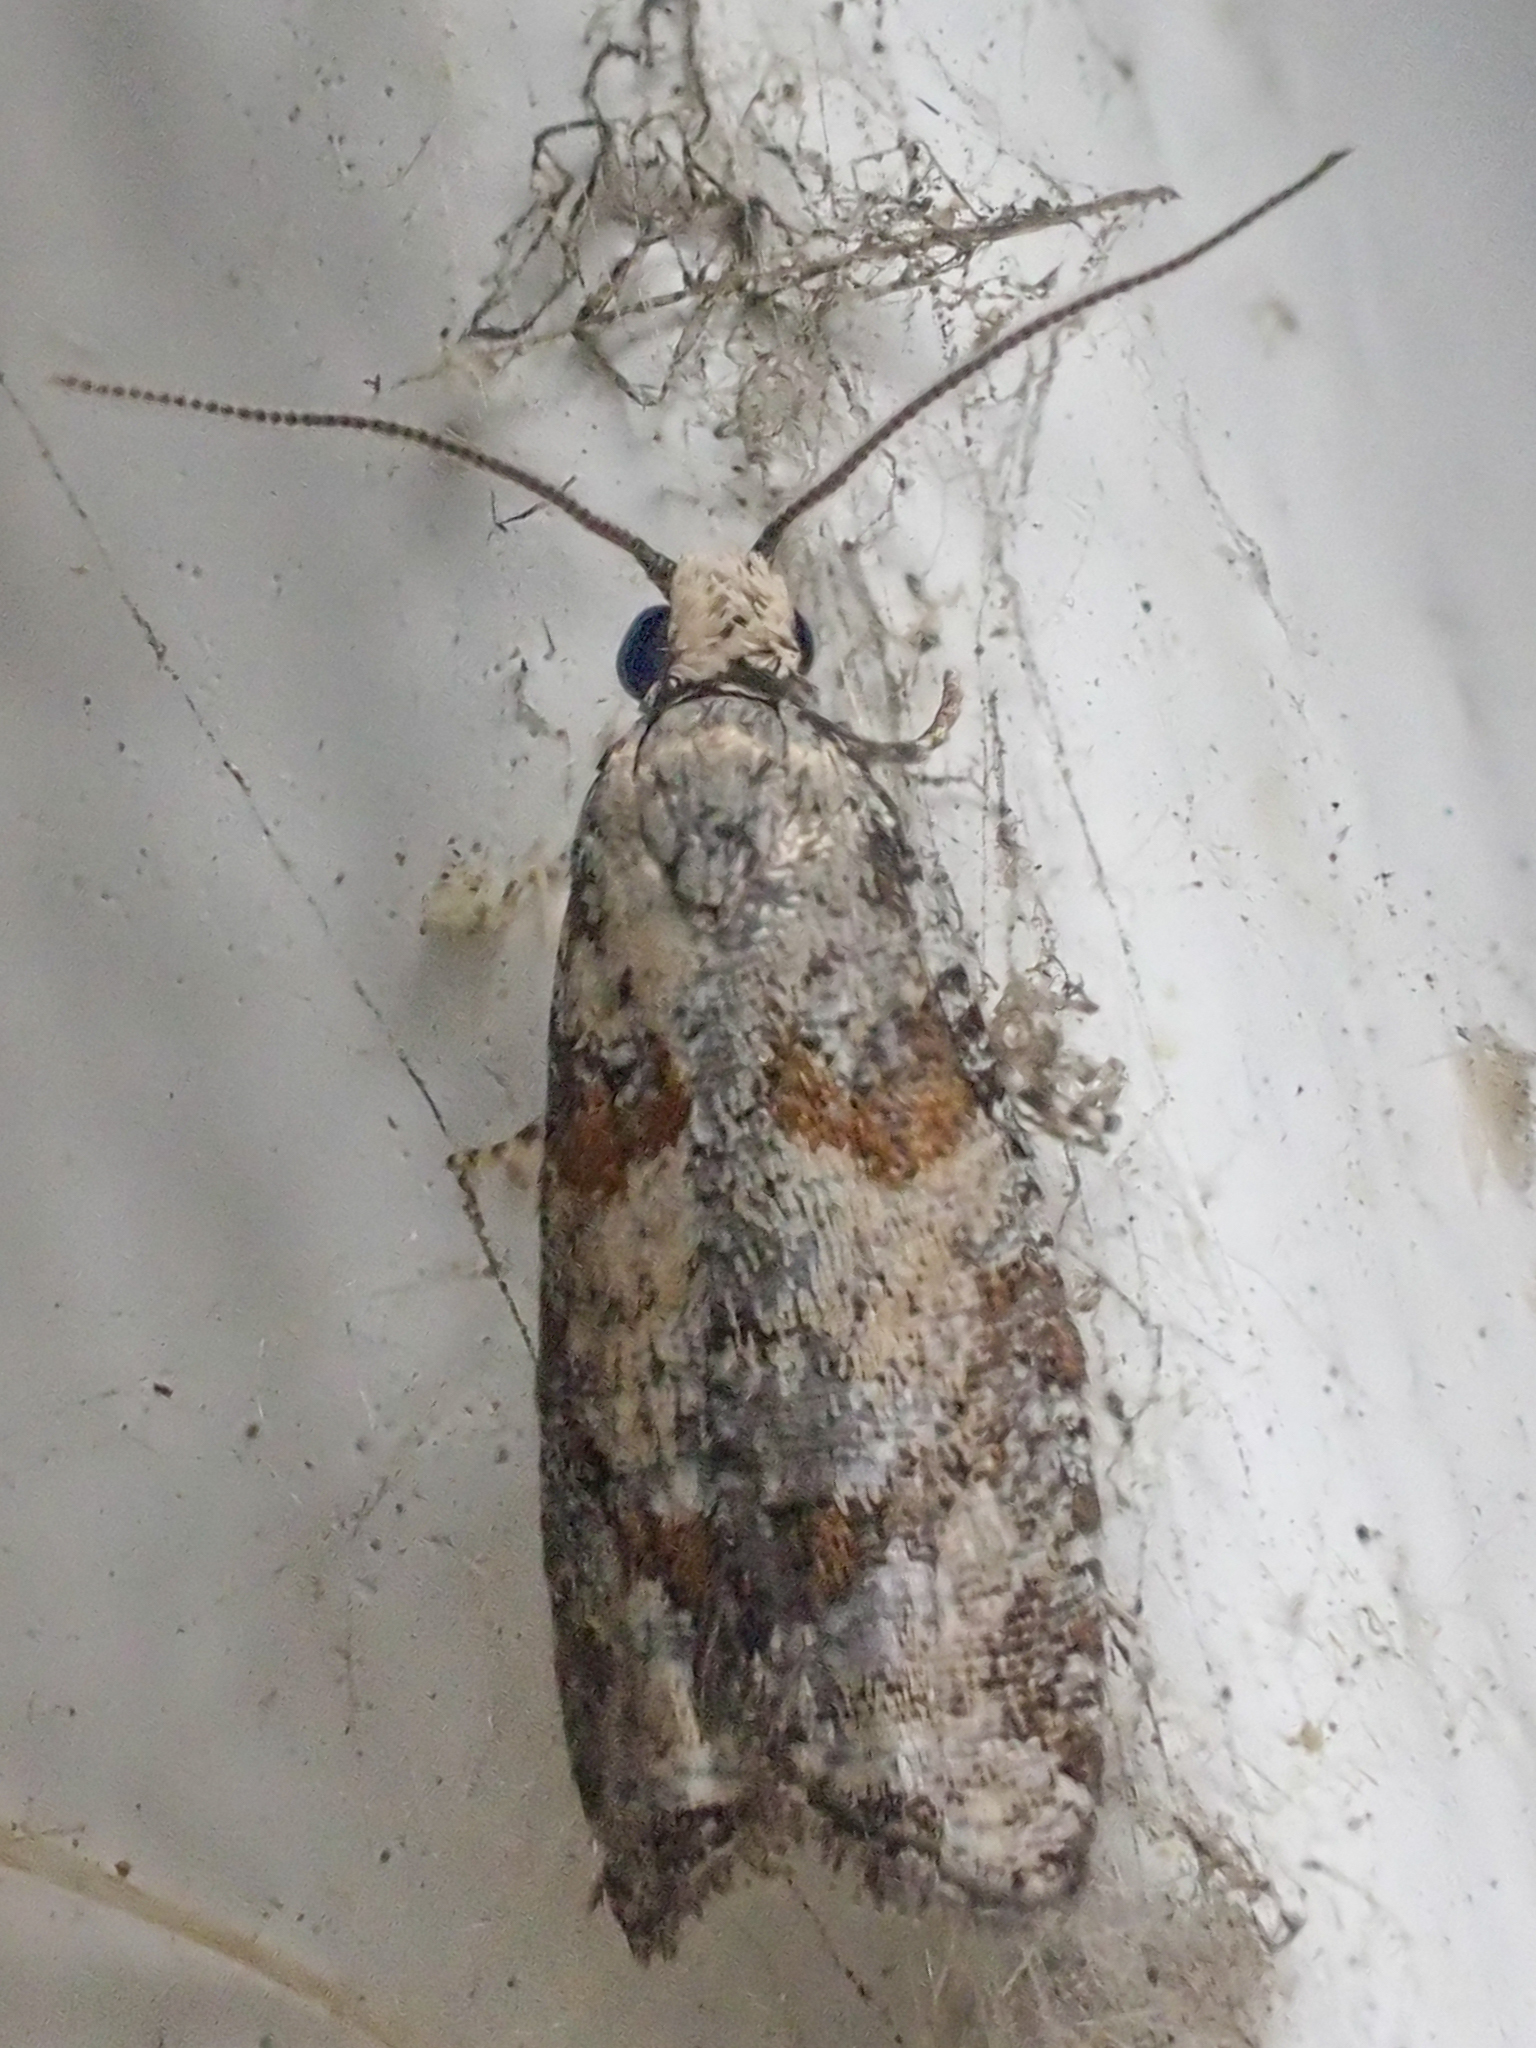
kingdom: Animalia
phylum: Arthropoda
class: Insecta
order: Lepidoptera
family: Tortricidae
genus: Epinotia
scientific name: Epinotia radicana
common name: Red-striped needleworm moth
